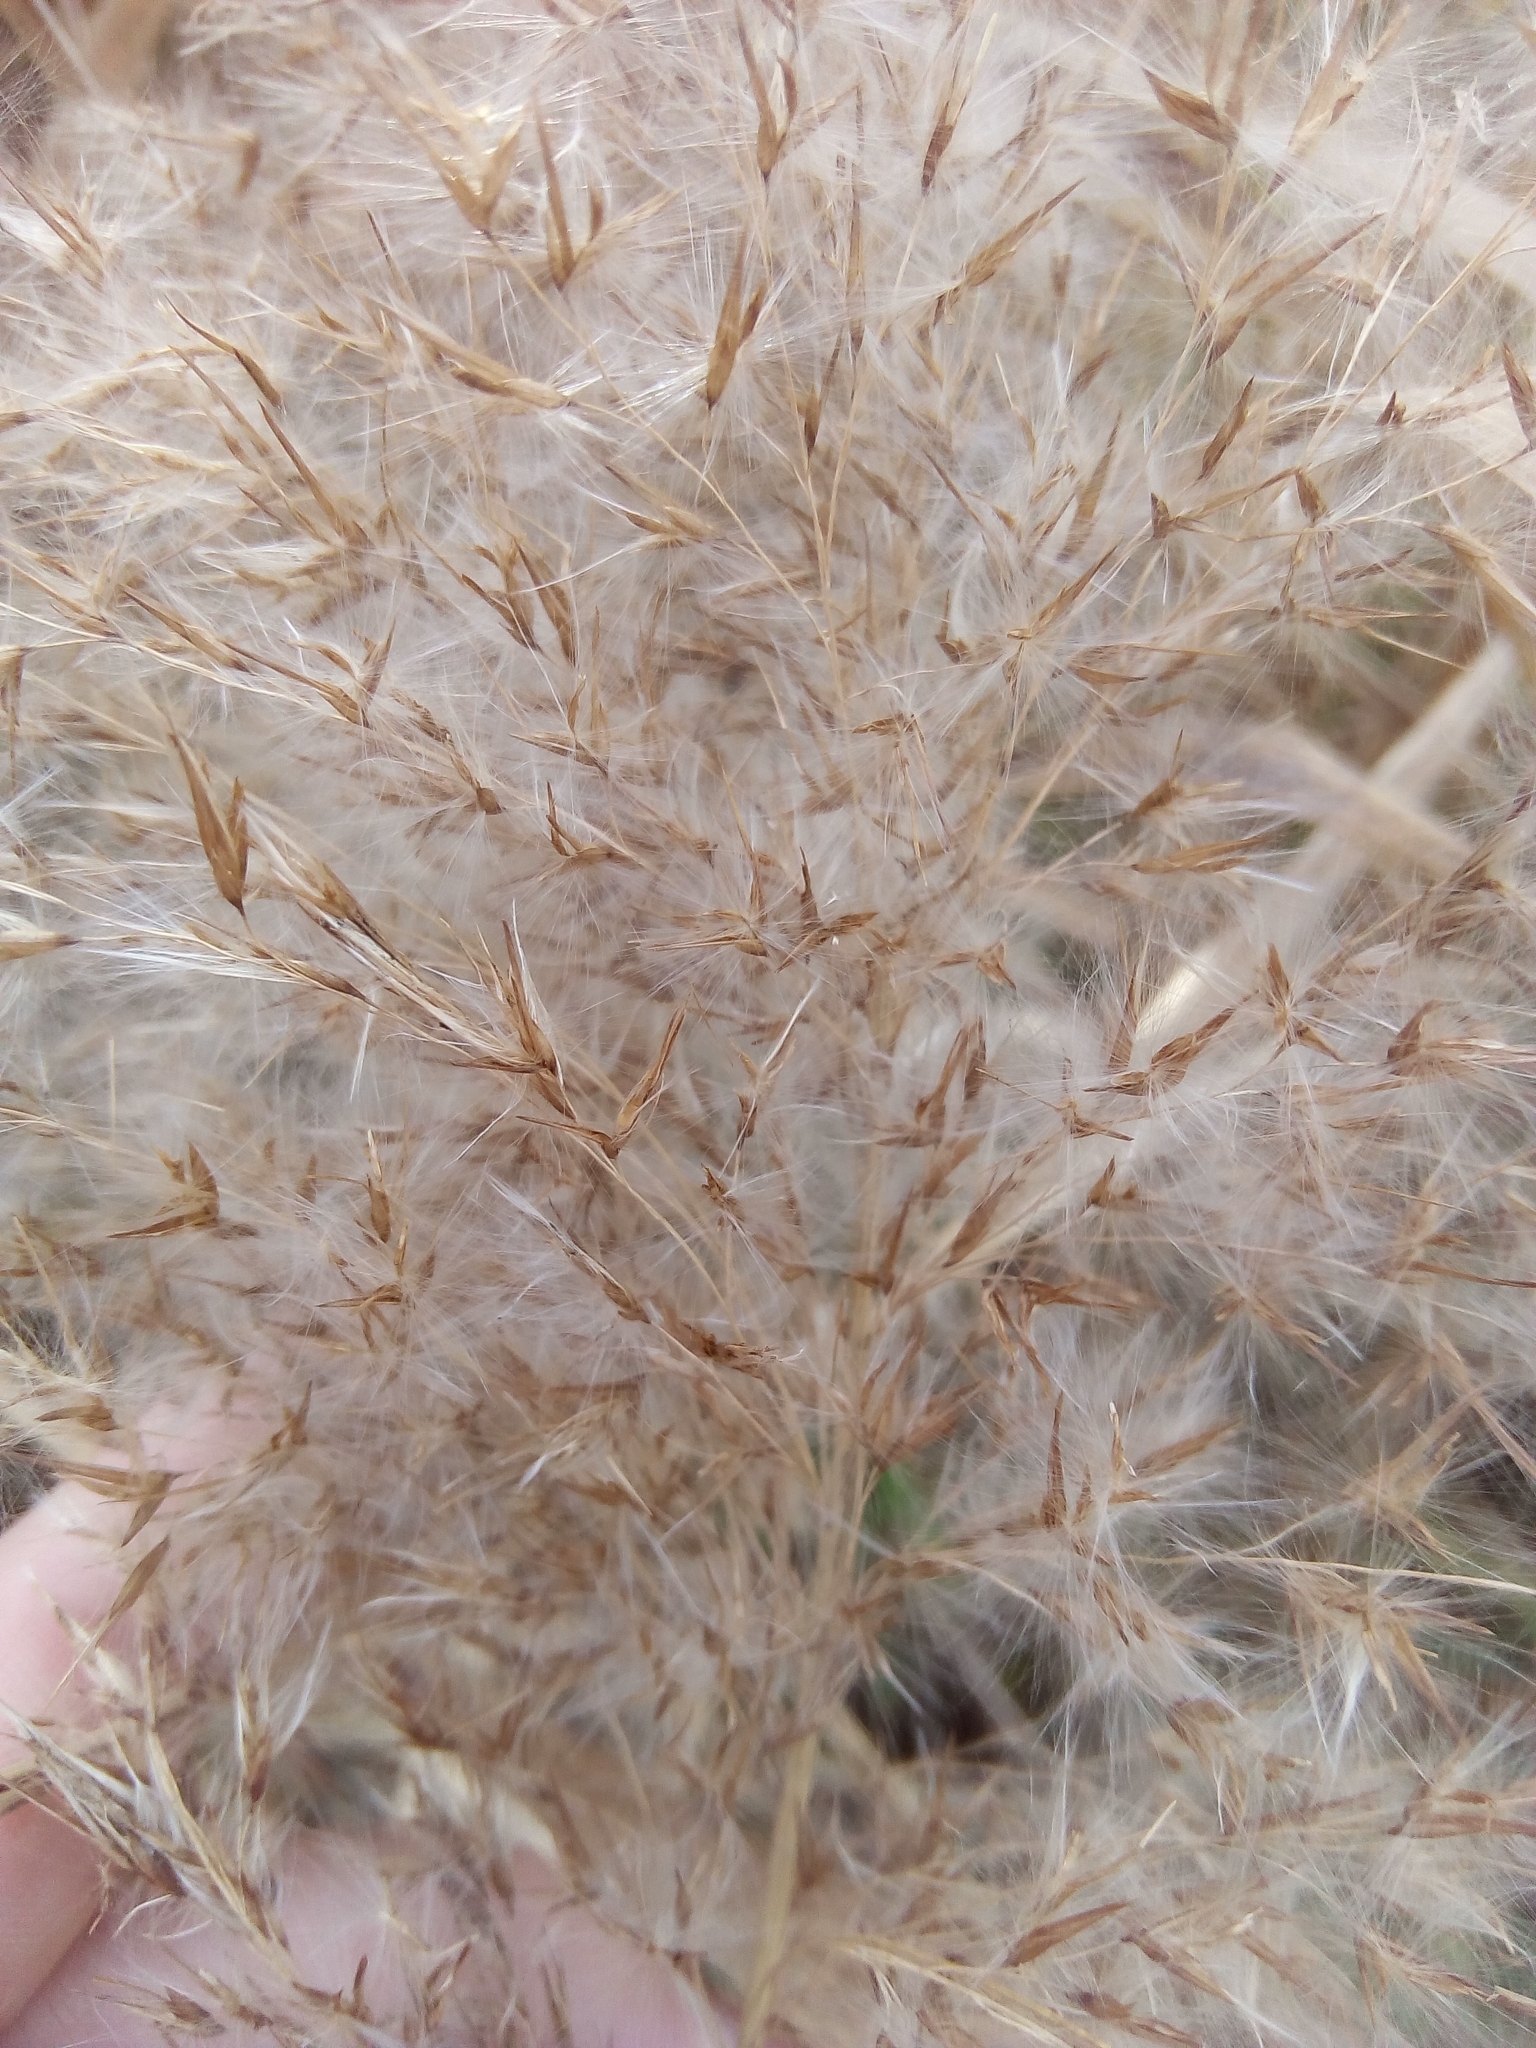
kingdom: Plantae
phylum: Tracheophyta
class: Liliopsida
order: Poales
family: Poaceae
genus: Phragmites
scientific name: Phragmites australis
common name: Common reed
